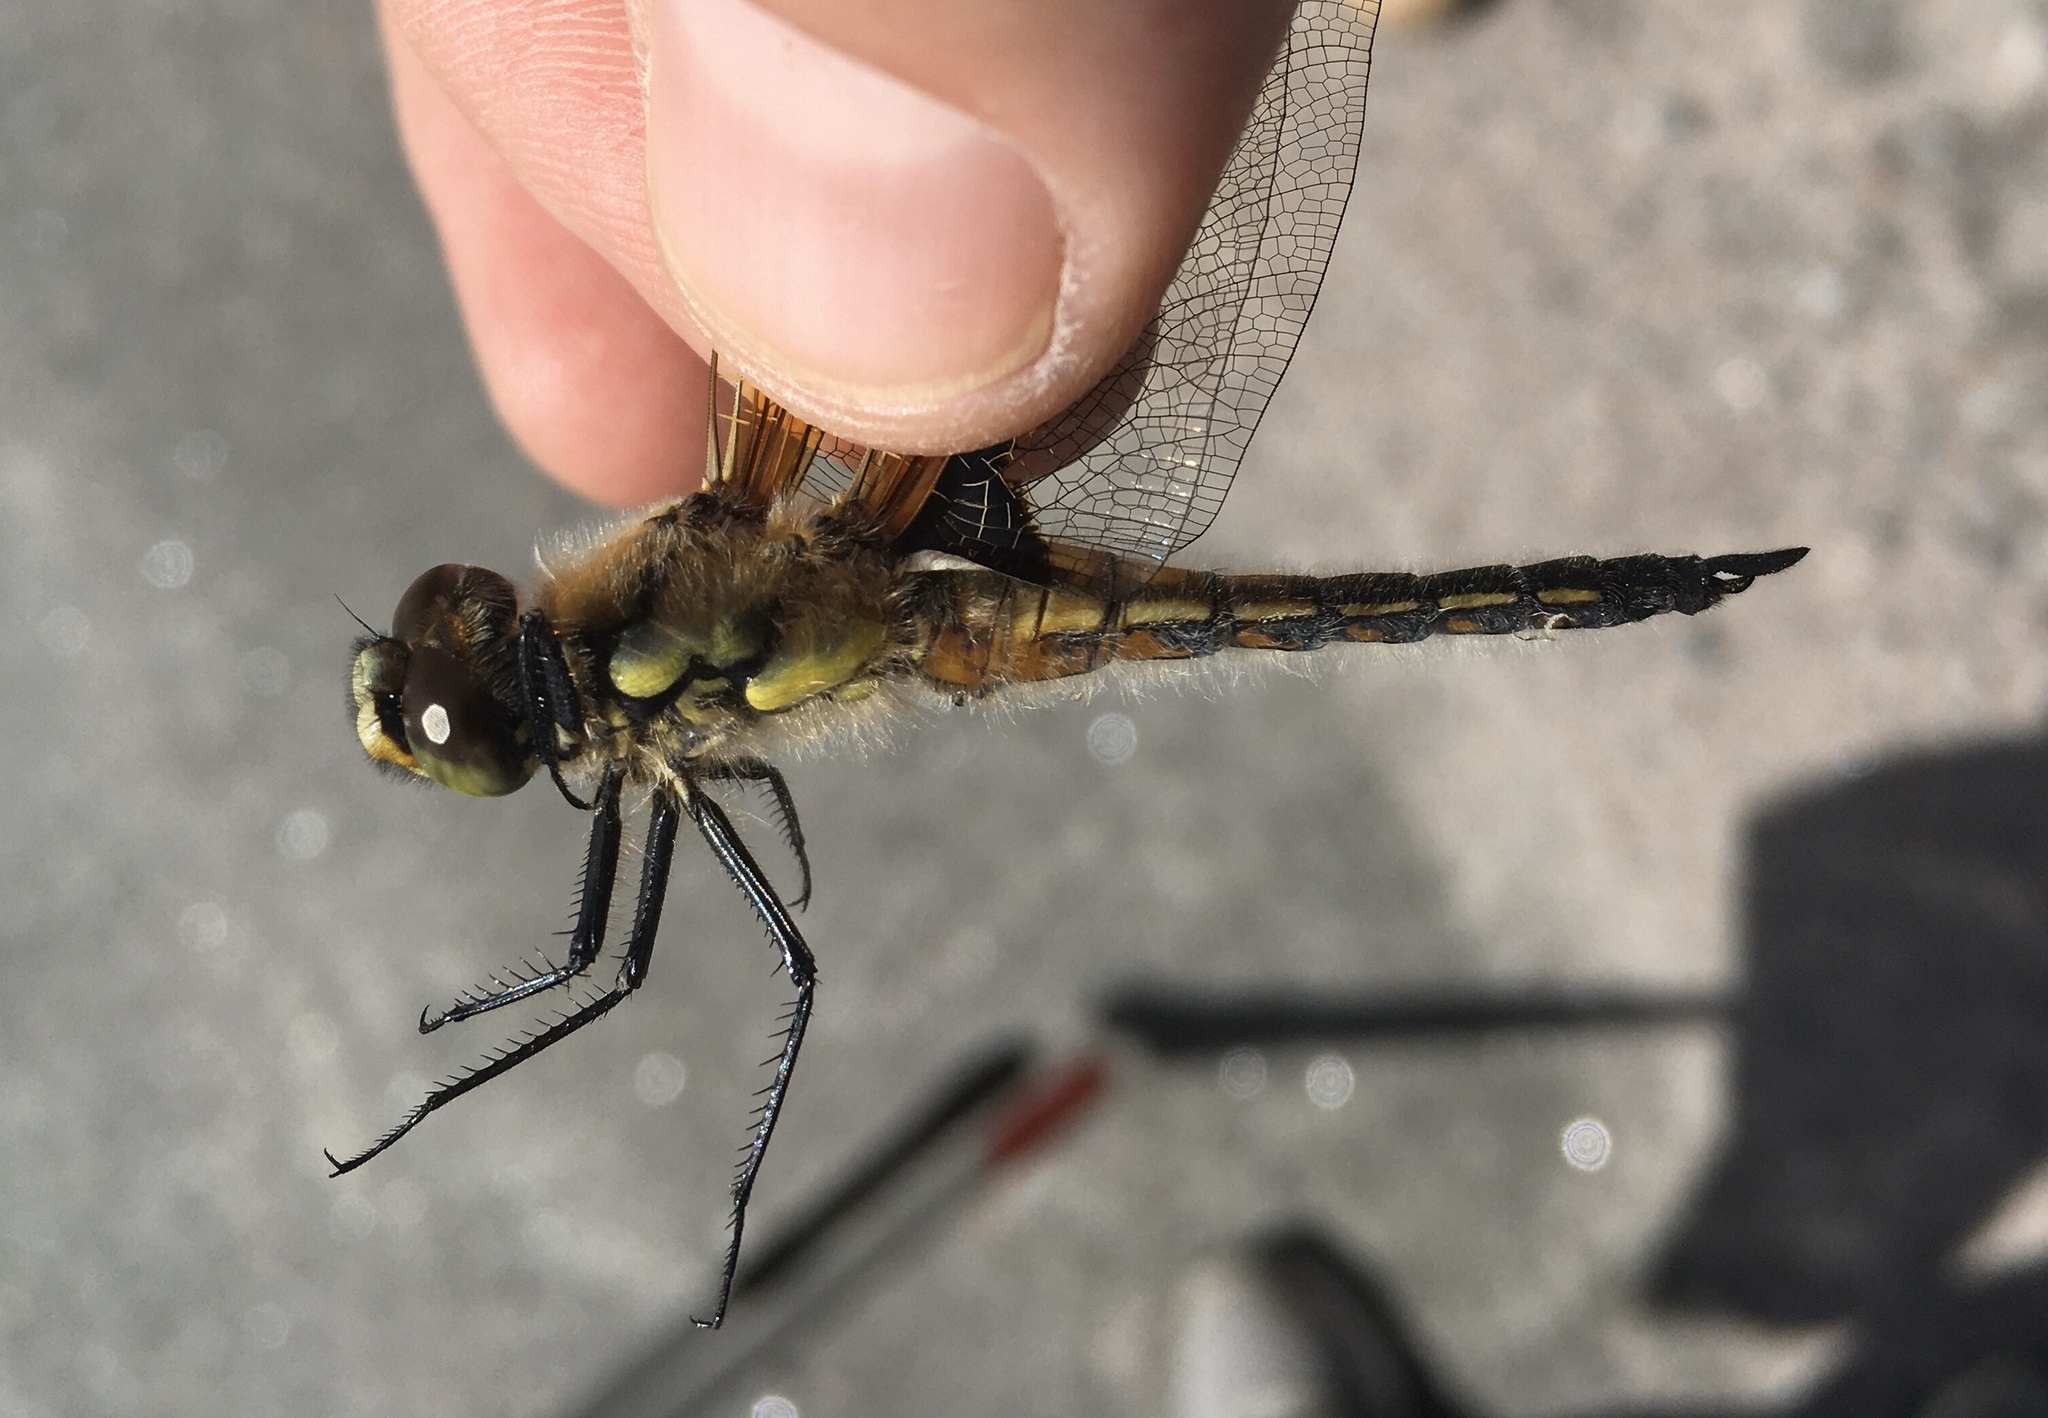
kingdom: Animalia
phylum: Arthropoda
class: Insecta
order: Odonata
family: Libellulidae
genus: Libellula
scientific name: Libellula quadrimaculata
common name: Four-spotted chaser
